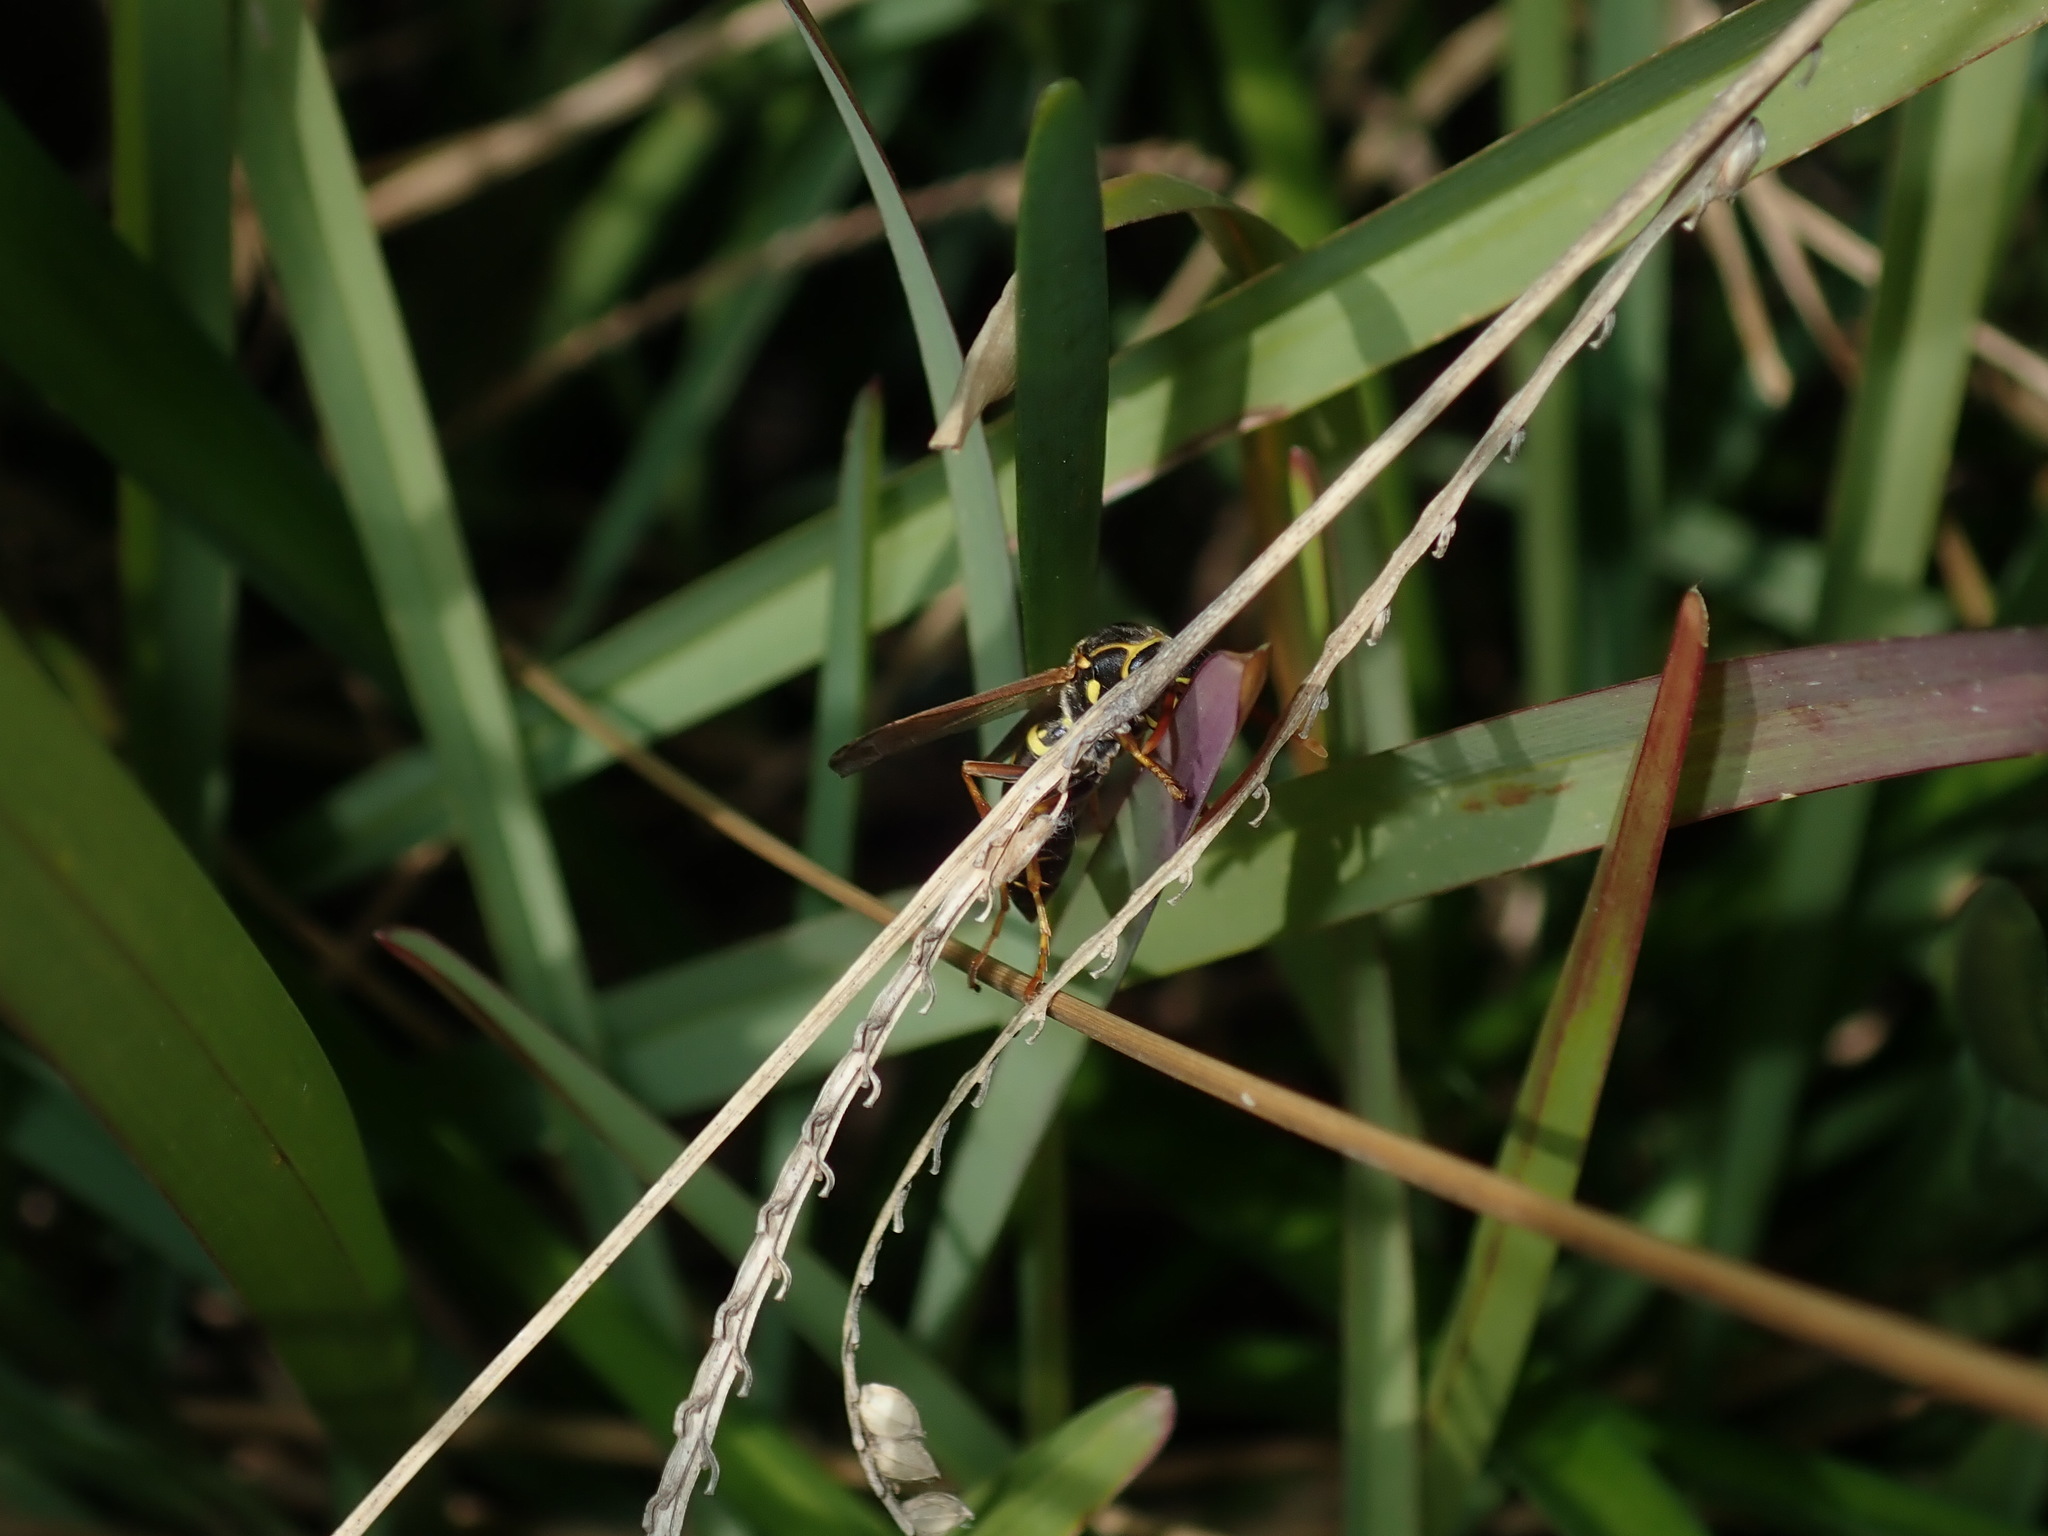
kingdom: Animalia
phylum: Arthropoda
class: Insecta
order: Hymenoptera
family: Eumenidae
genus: Polistes
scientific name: Polistes chinensis
